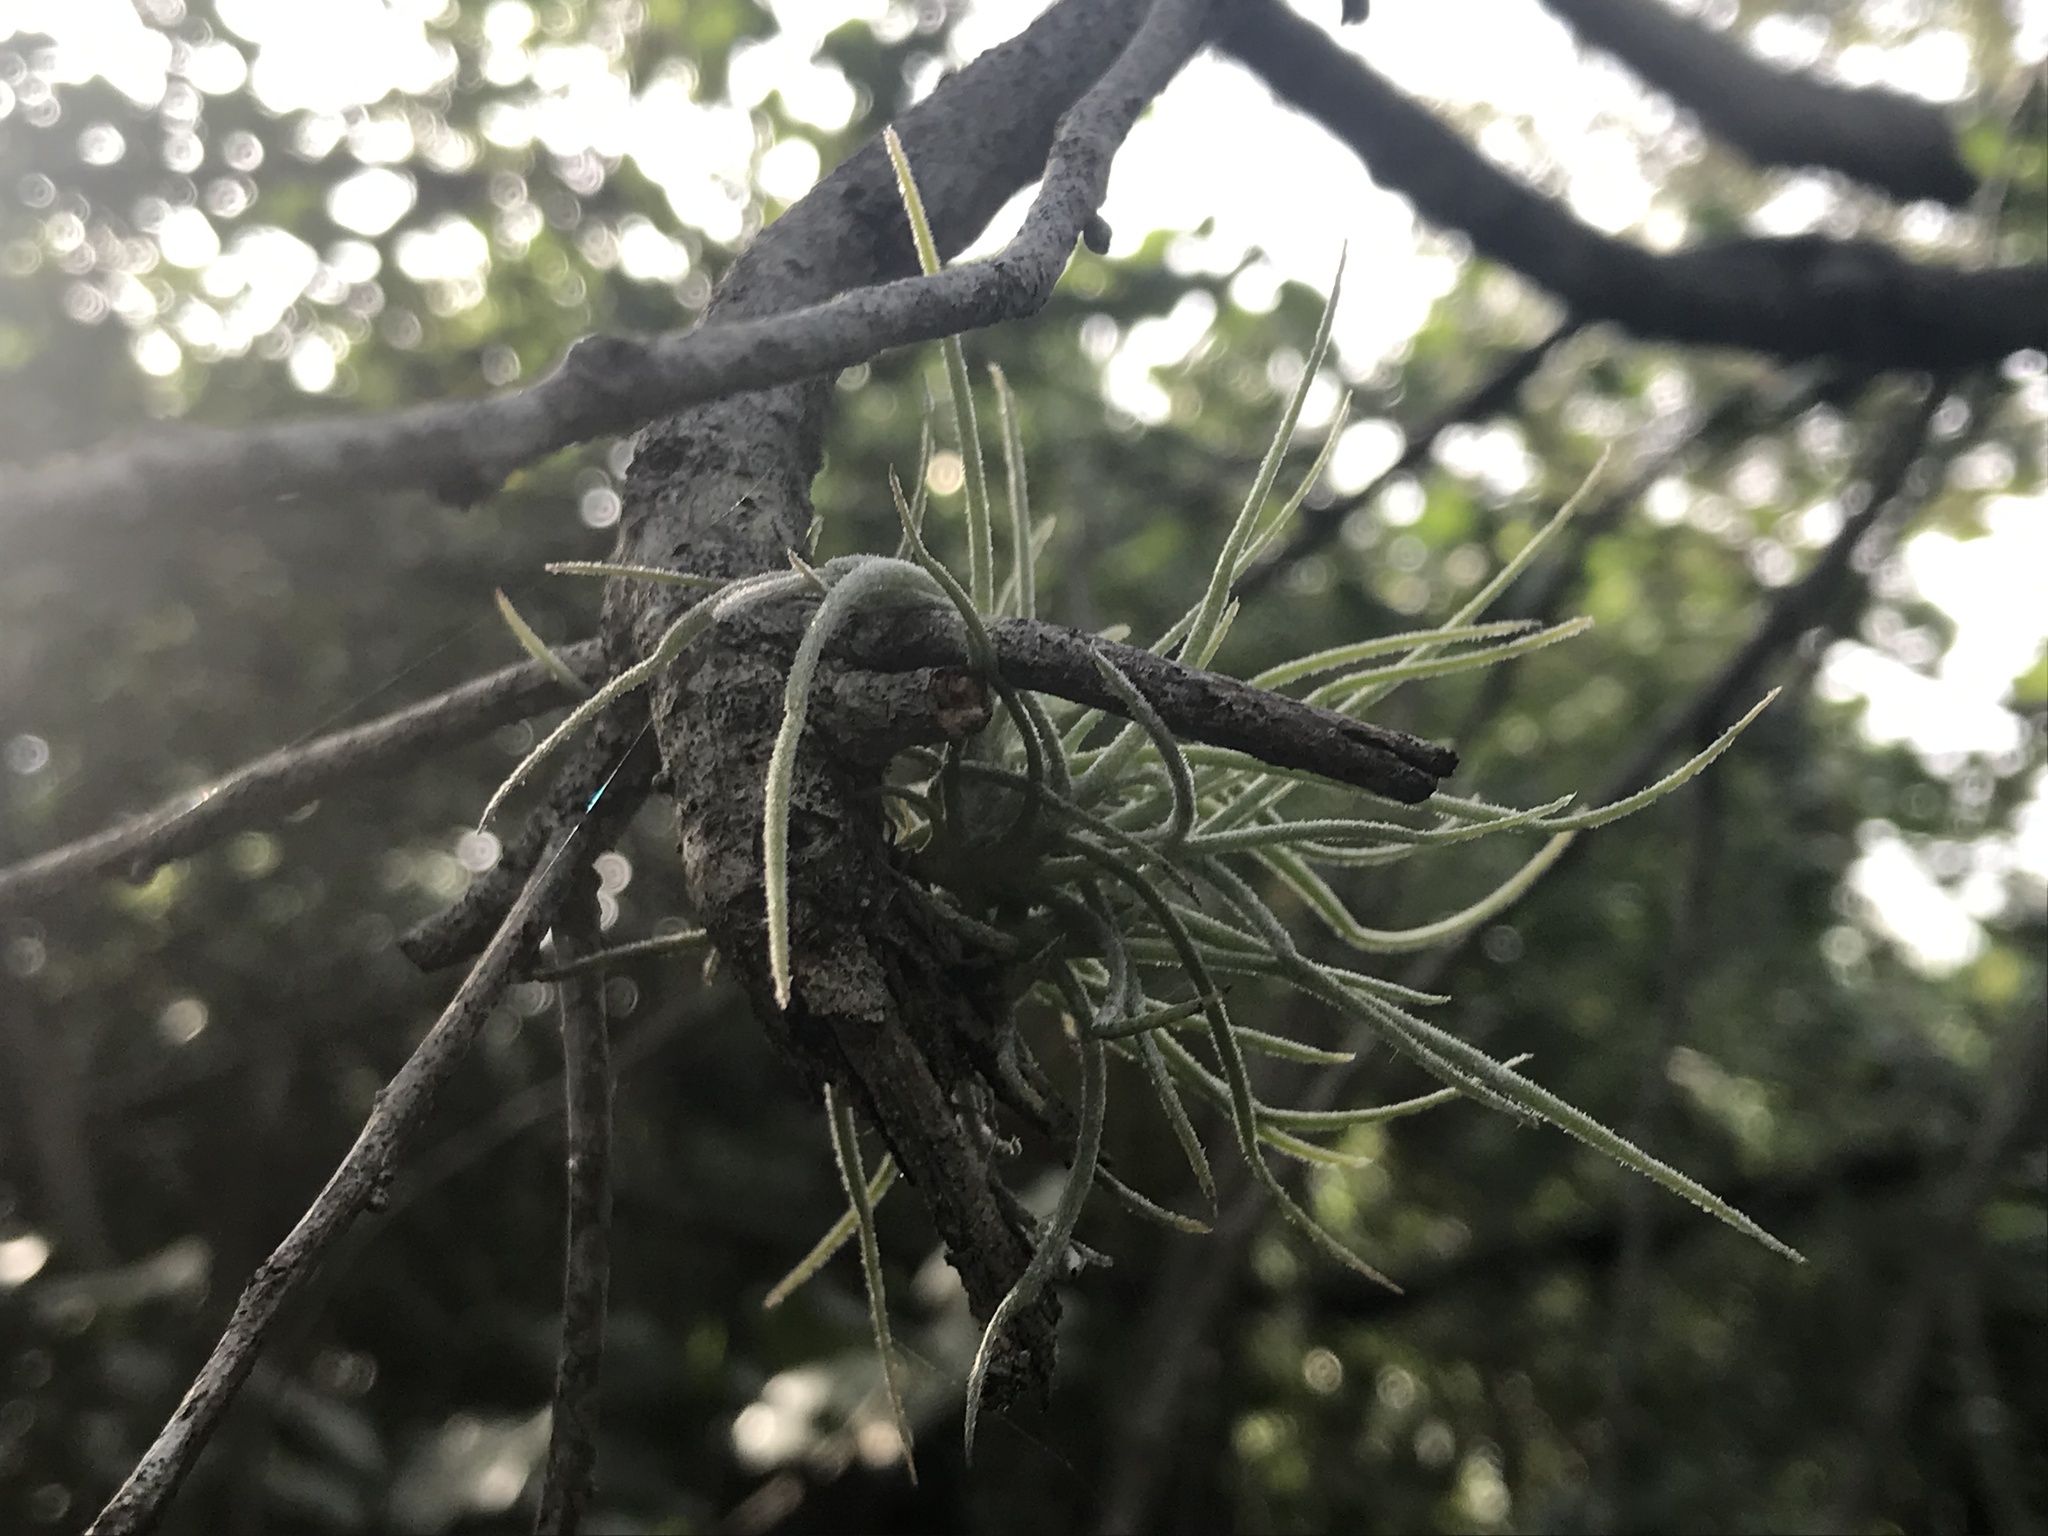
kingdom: Plantae
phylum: Tracheophyta
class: Liliopsida
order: Poales
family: Bromeliaceae
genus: Tillandsia
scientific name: Tillandsia recurvata
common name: Small ballmoss
